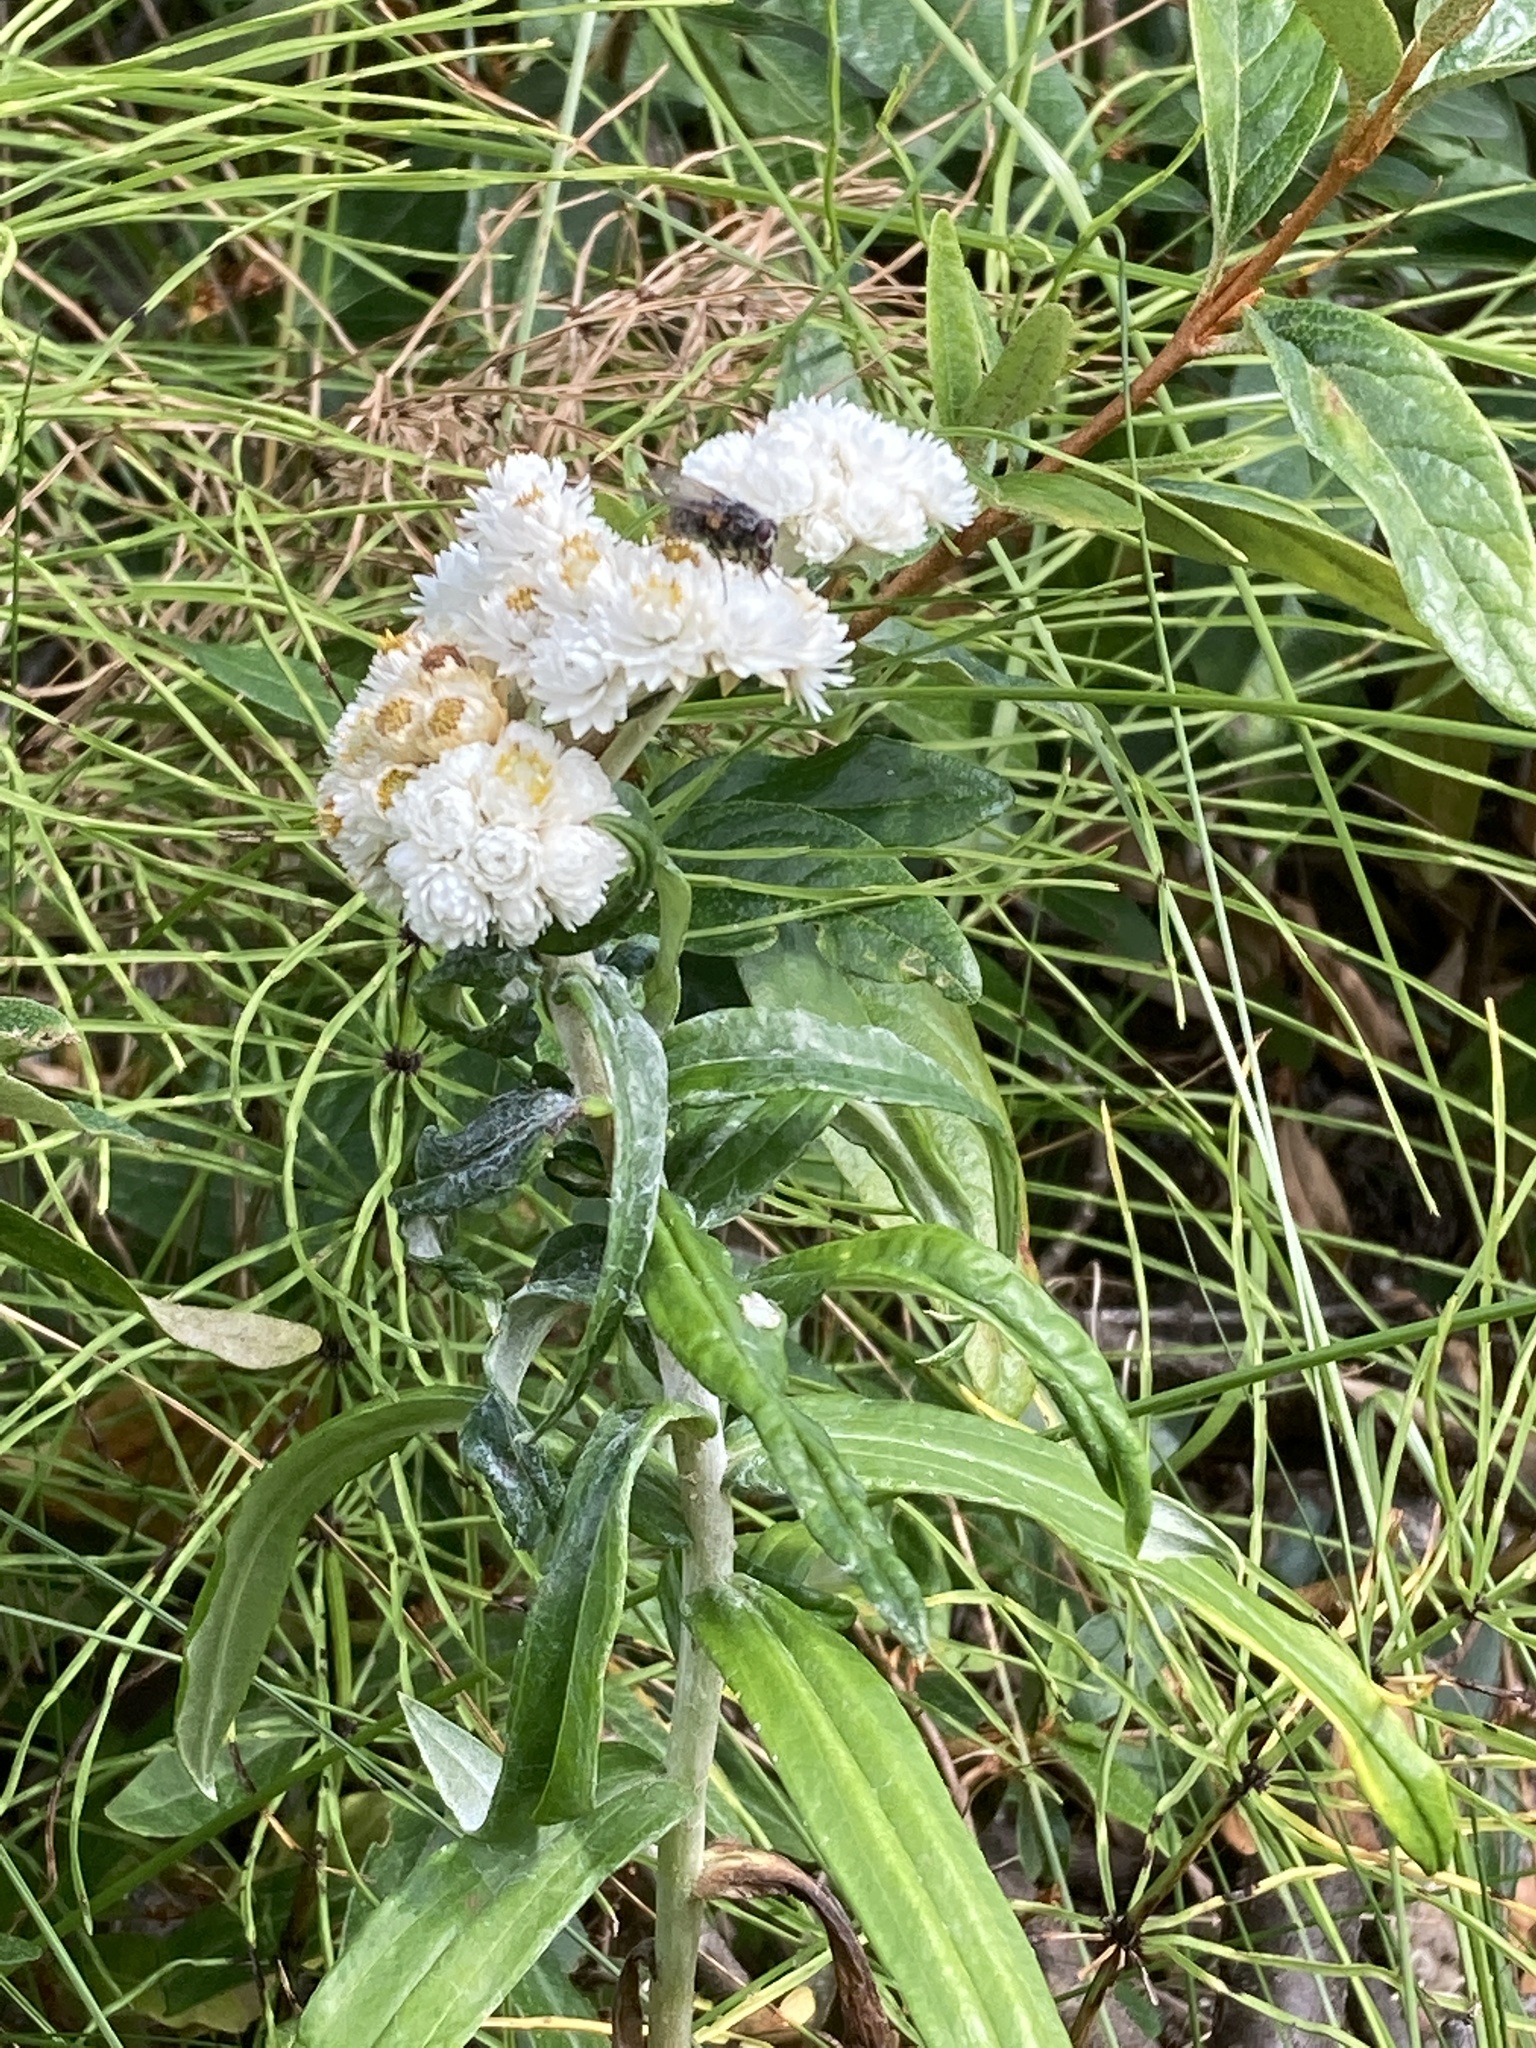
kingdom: Plantae
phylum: Tracheophyta
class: Magnoliopsida
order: Asterales
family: Asteraceae
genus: Anaphalis
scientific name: Anaphalis margaritacea
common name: Pearly everlasting
